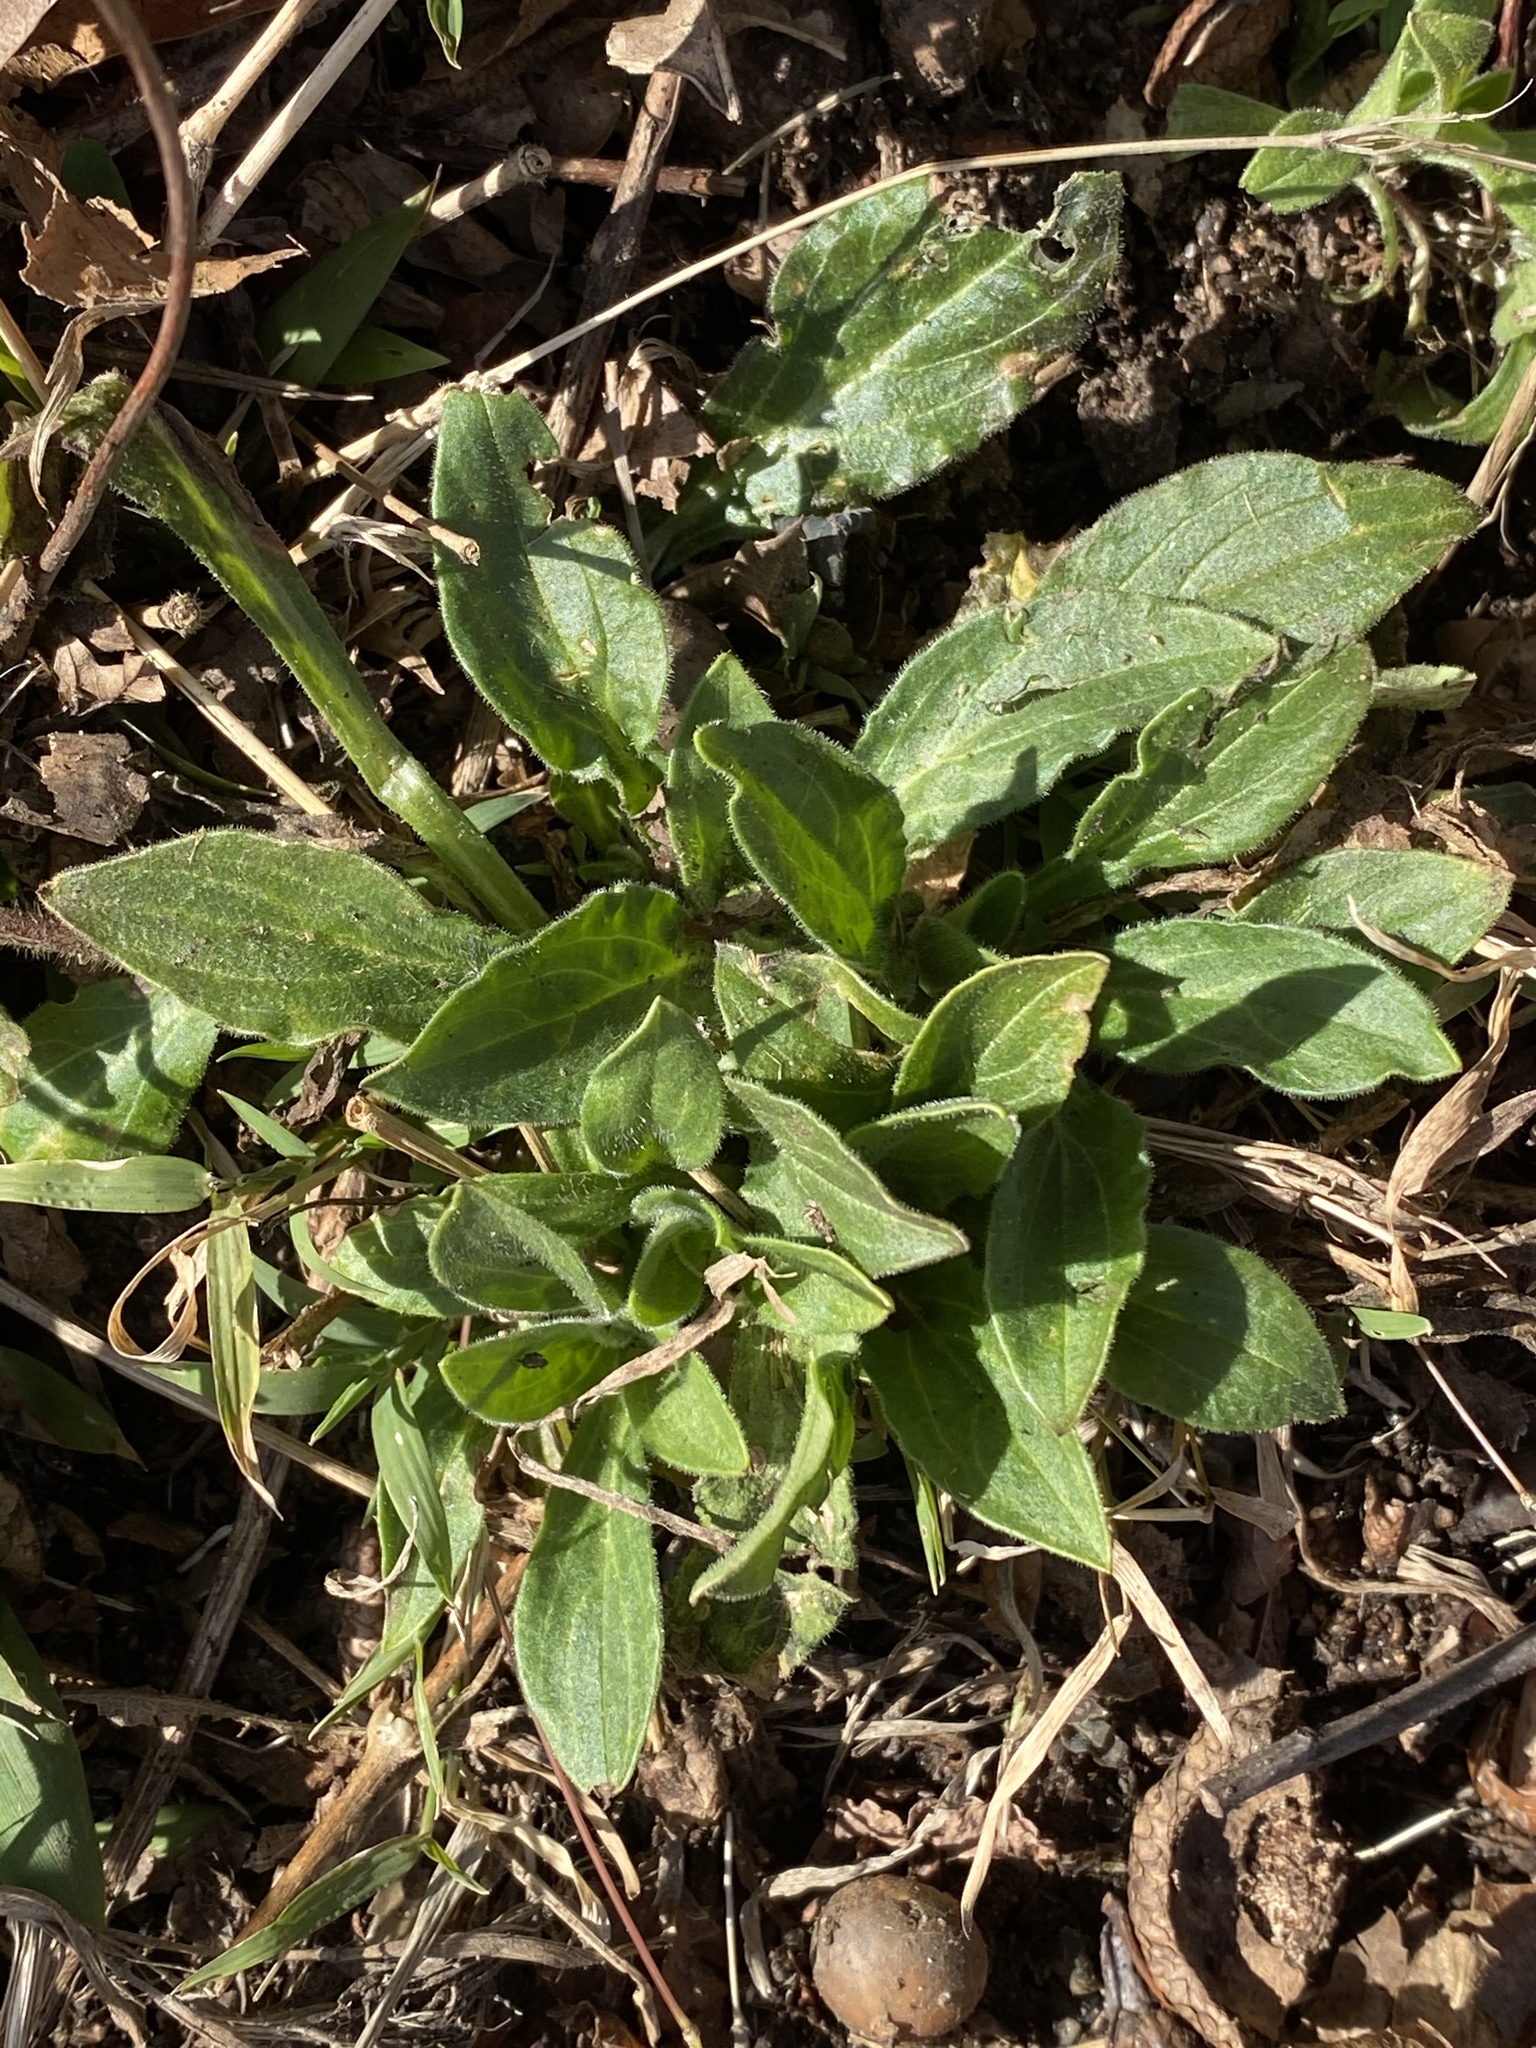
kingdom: Plantae
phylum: Tracheophyta
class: Magnoliopsida
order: Caryophyllales
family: Caryophyllaceae
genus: Silene
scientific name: Silene latifolia
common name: White campion
